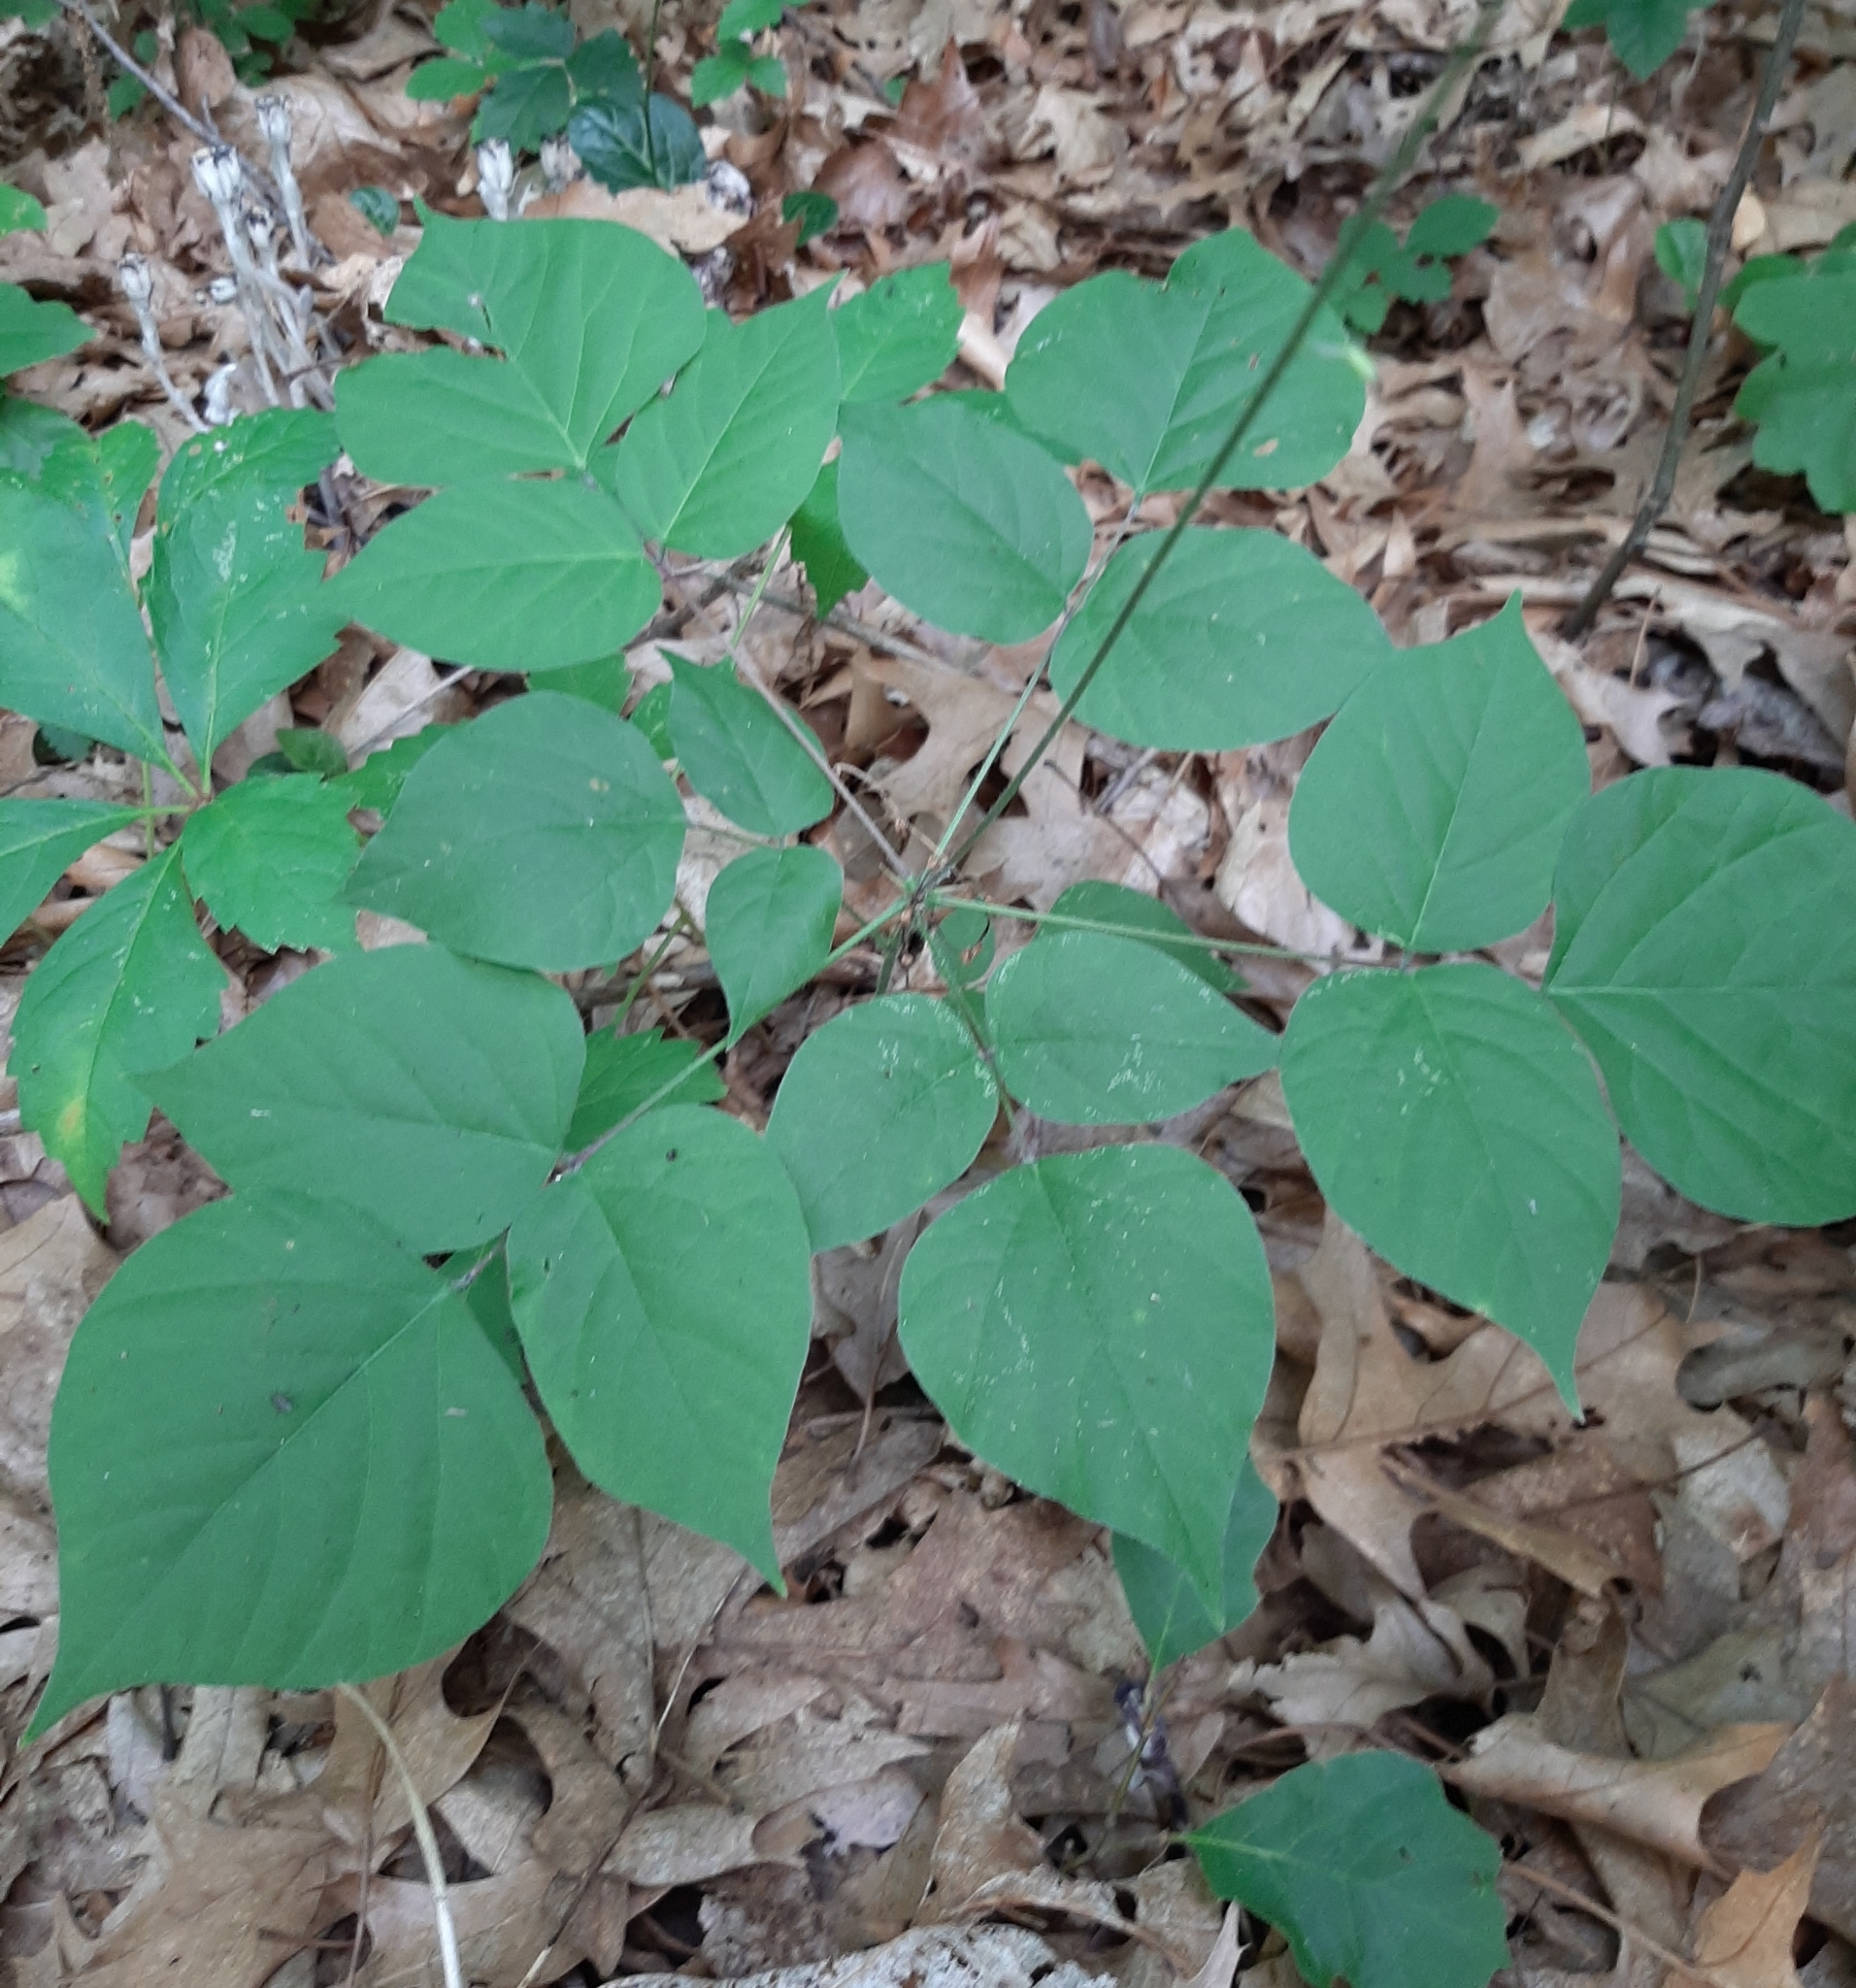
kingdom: Plantae
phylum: Tracheophyta
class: Magnoliopsida
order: Fabales
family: Fabaceae
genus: Hylodesmum
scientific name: Hylodesmum glutinosum
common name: Clustered-leaved tick-trefoil
